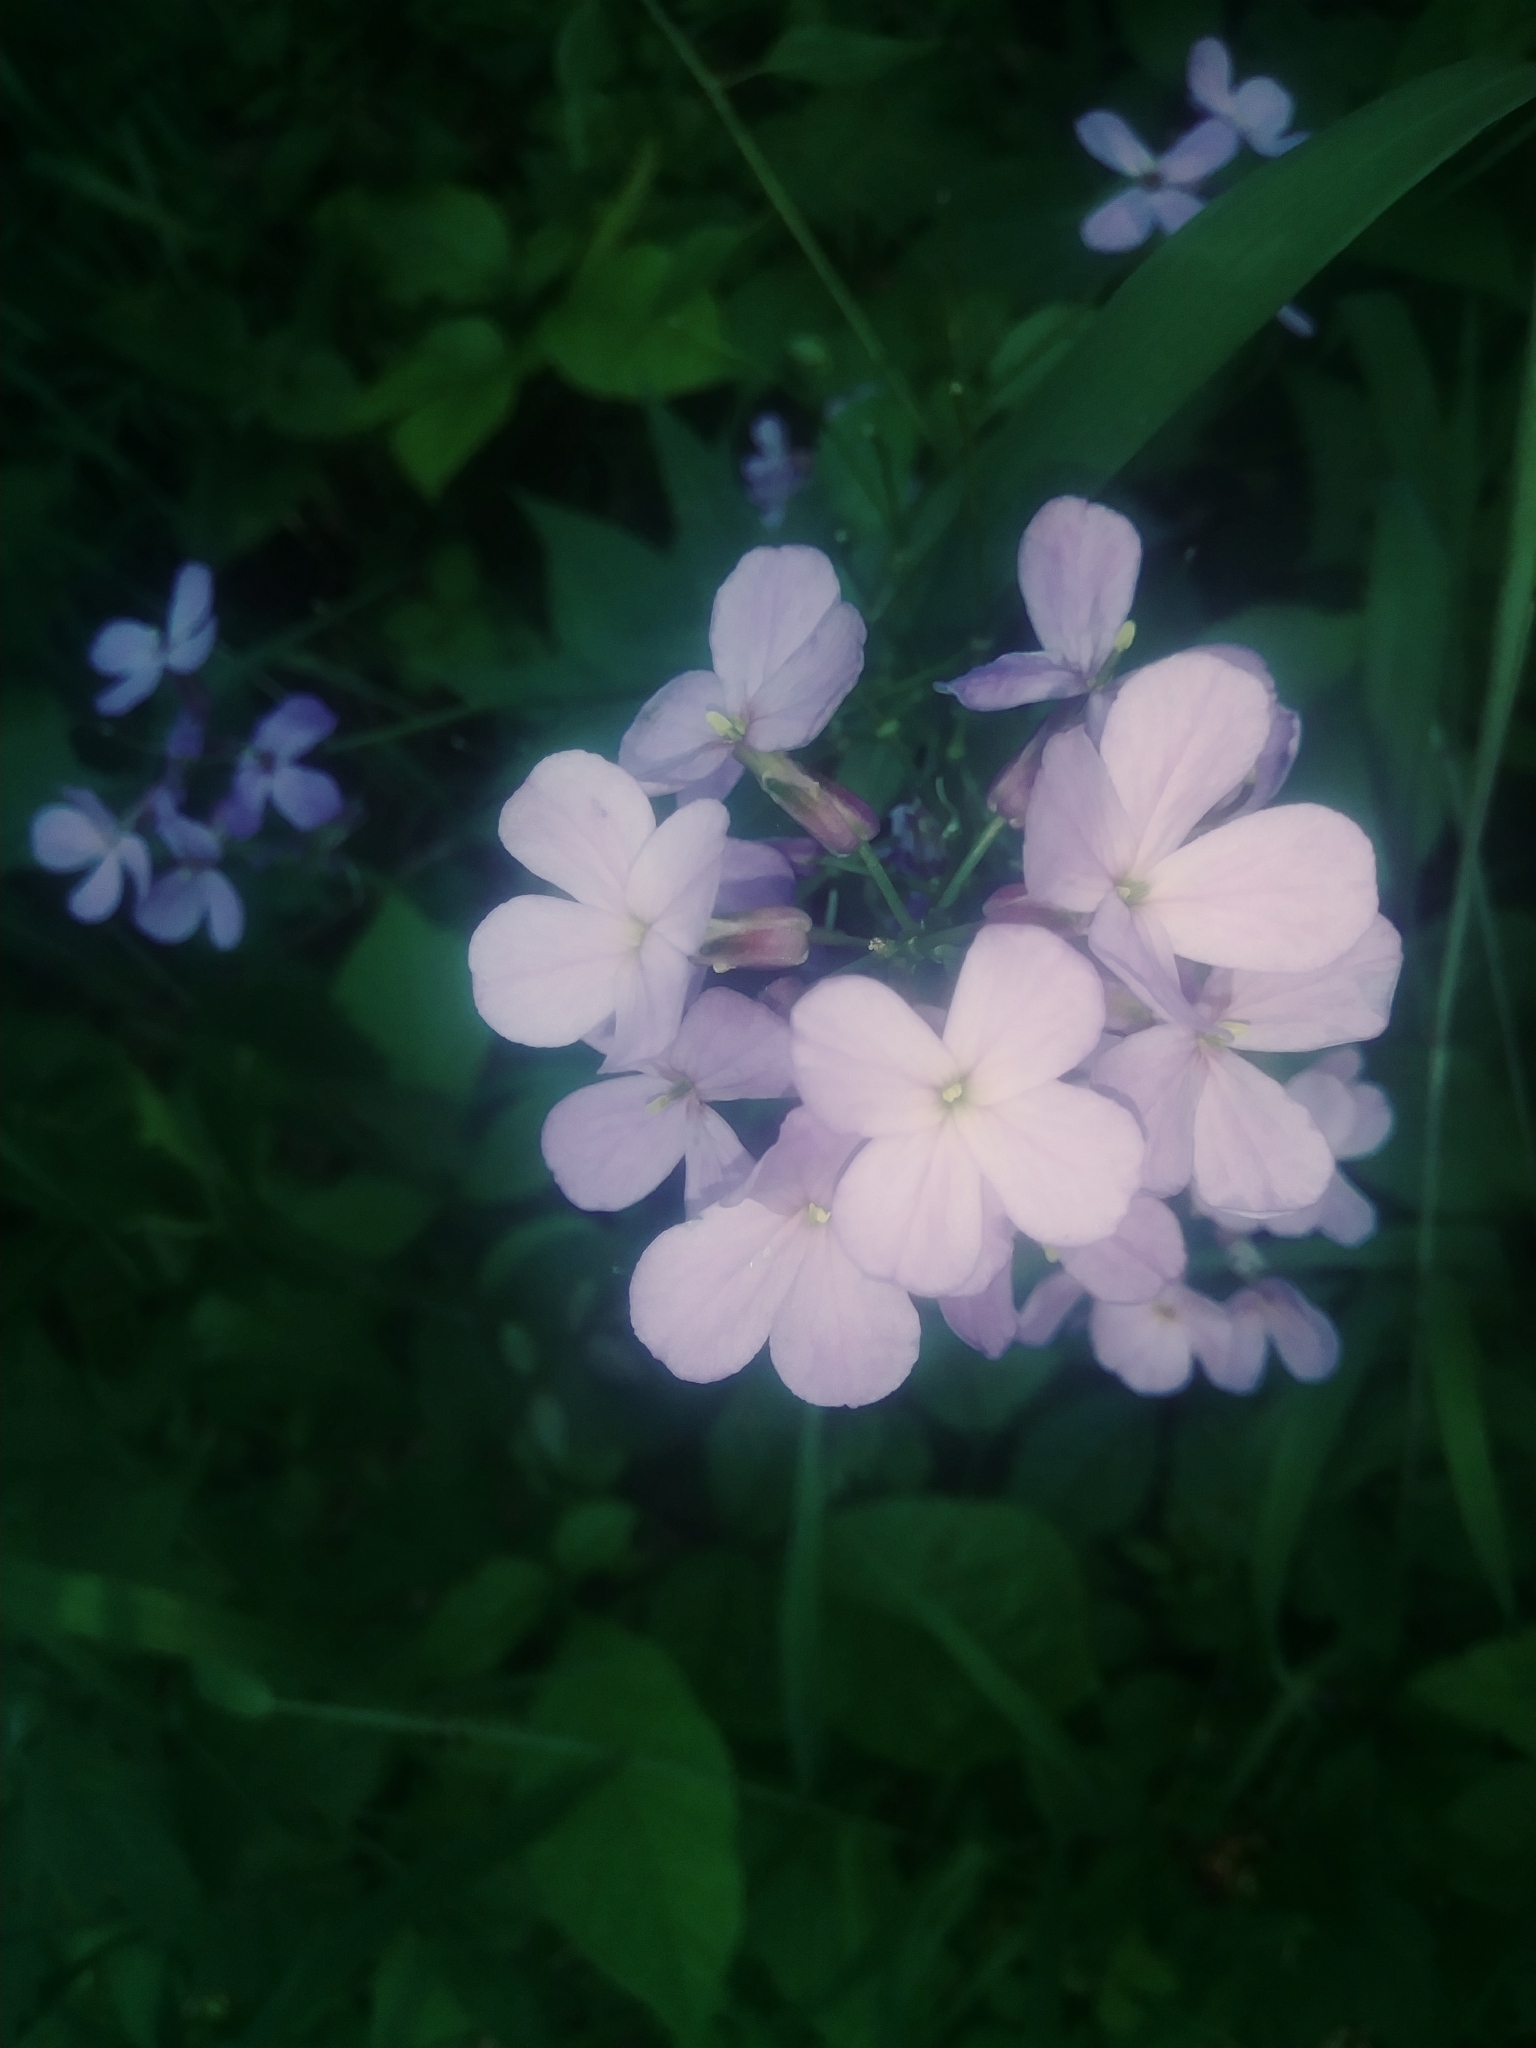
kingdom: Plantae
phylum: Tracheophyta
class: Magnoliopsida
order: Brassicales
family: Brassicaceae
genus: Hesperis
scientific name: Hesperis matronalis
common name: Dame's-violet
